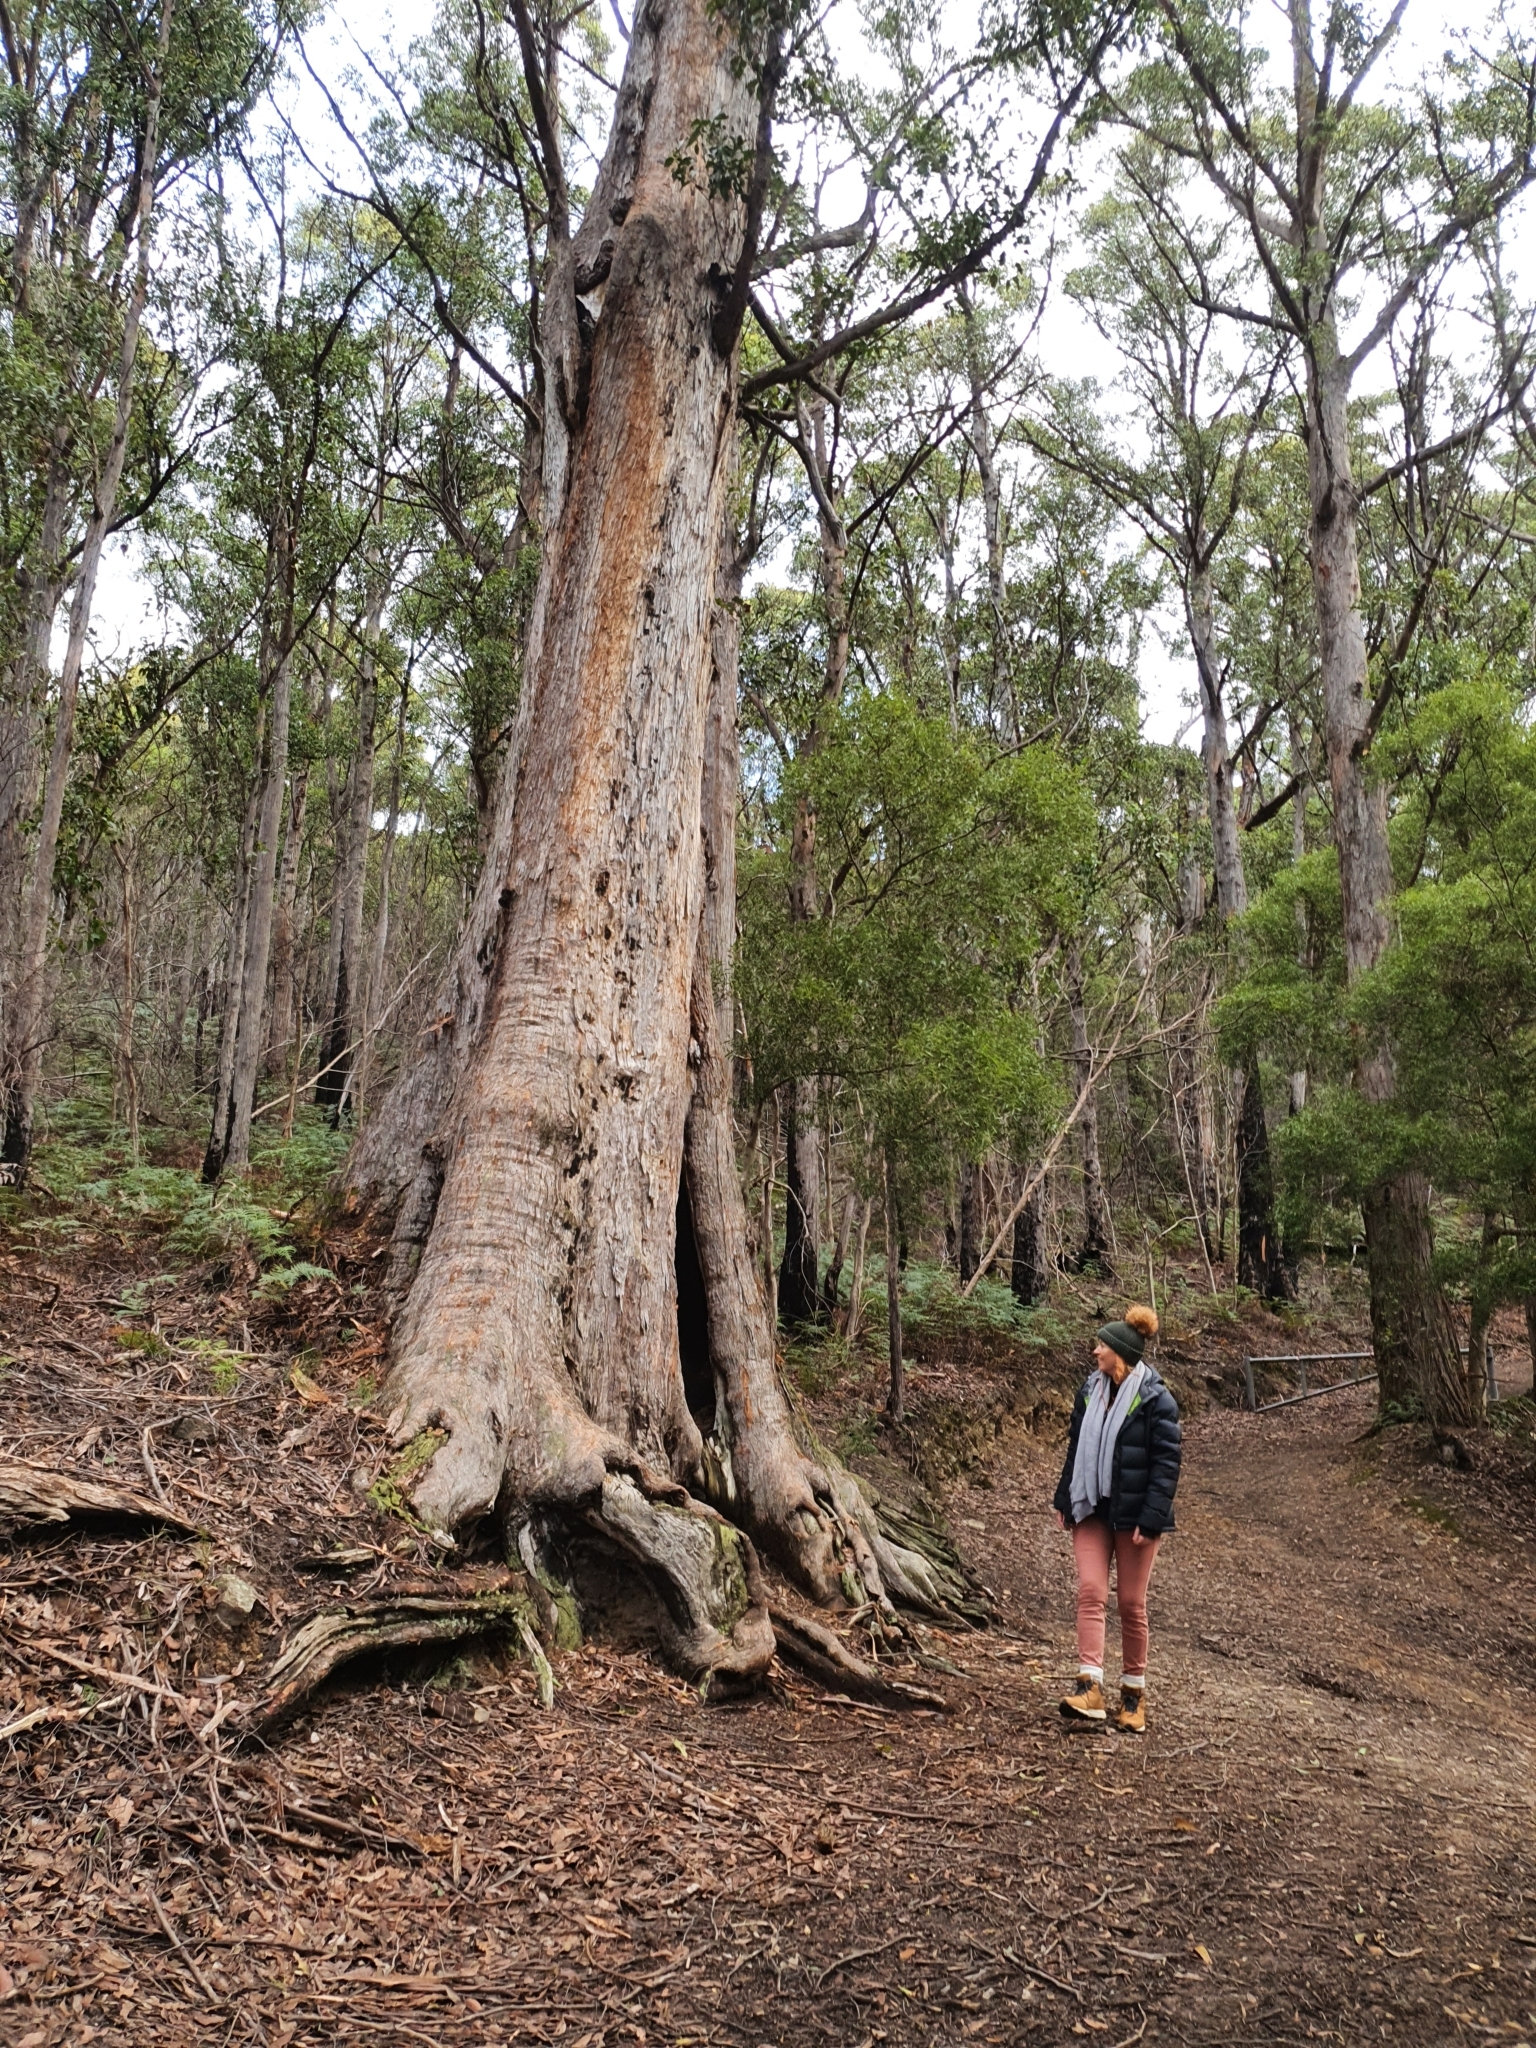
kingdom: Plantae
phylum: Tracheophyta
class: Magnoliopsida
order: Myrtales
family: Myrtaceae
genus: Eucalyptus
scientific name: Eucalyptus obliqua
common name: Messmate stringybark
